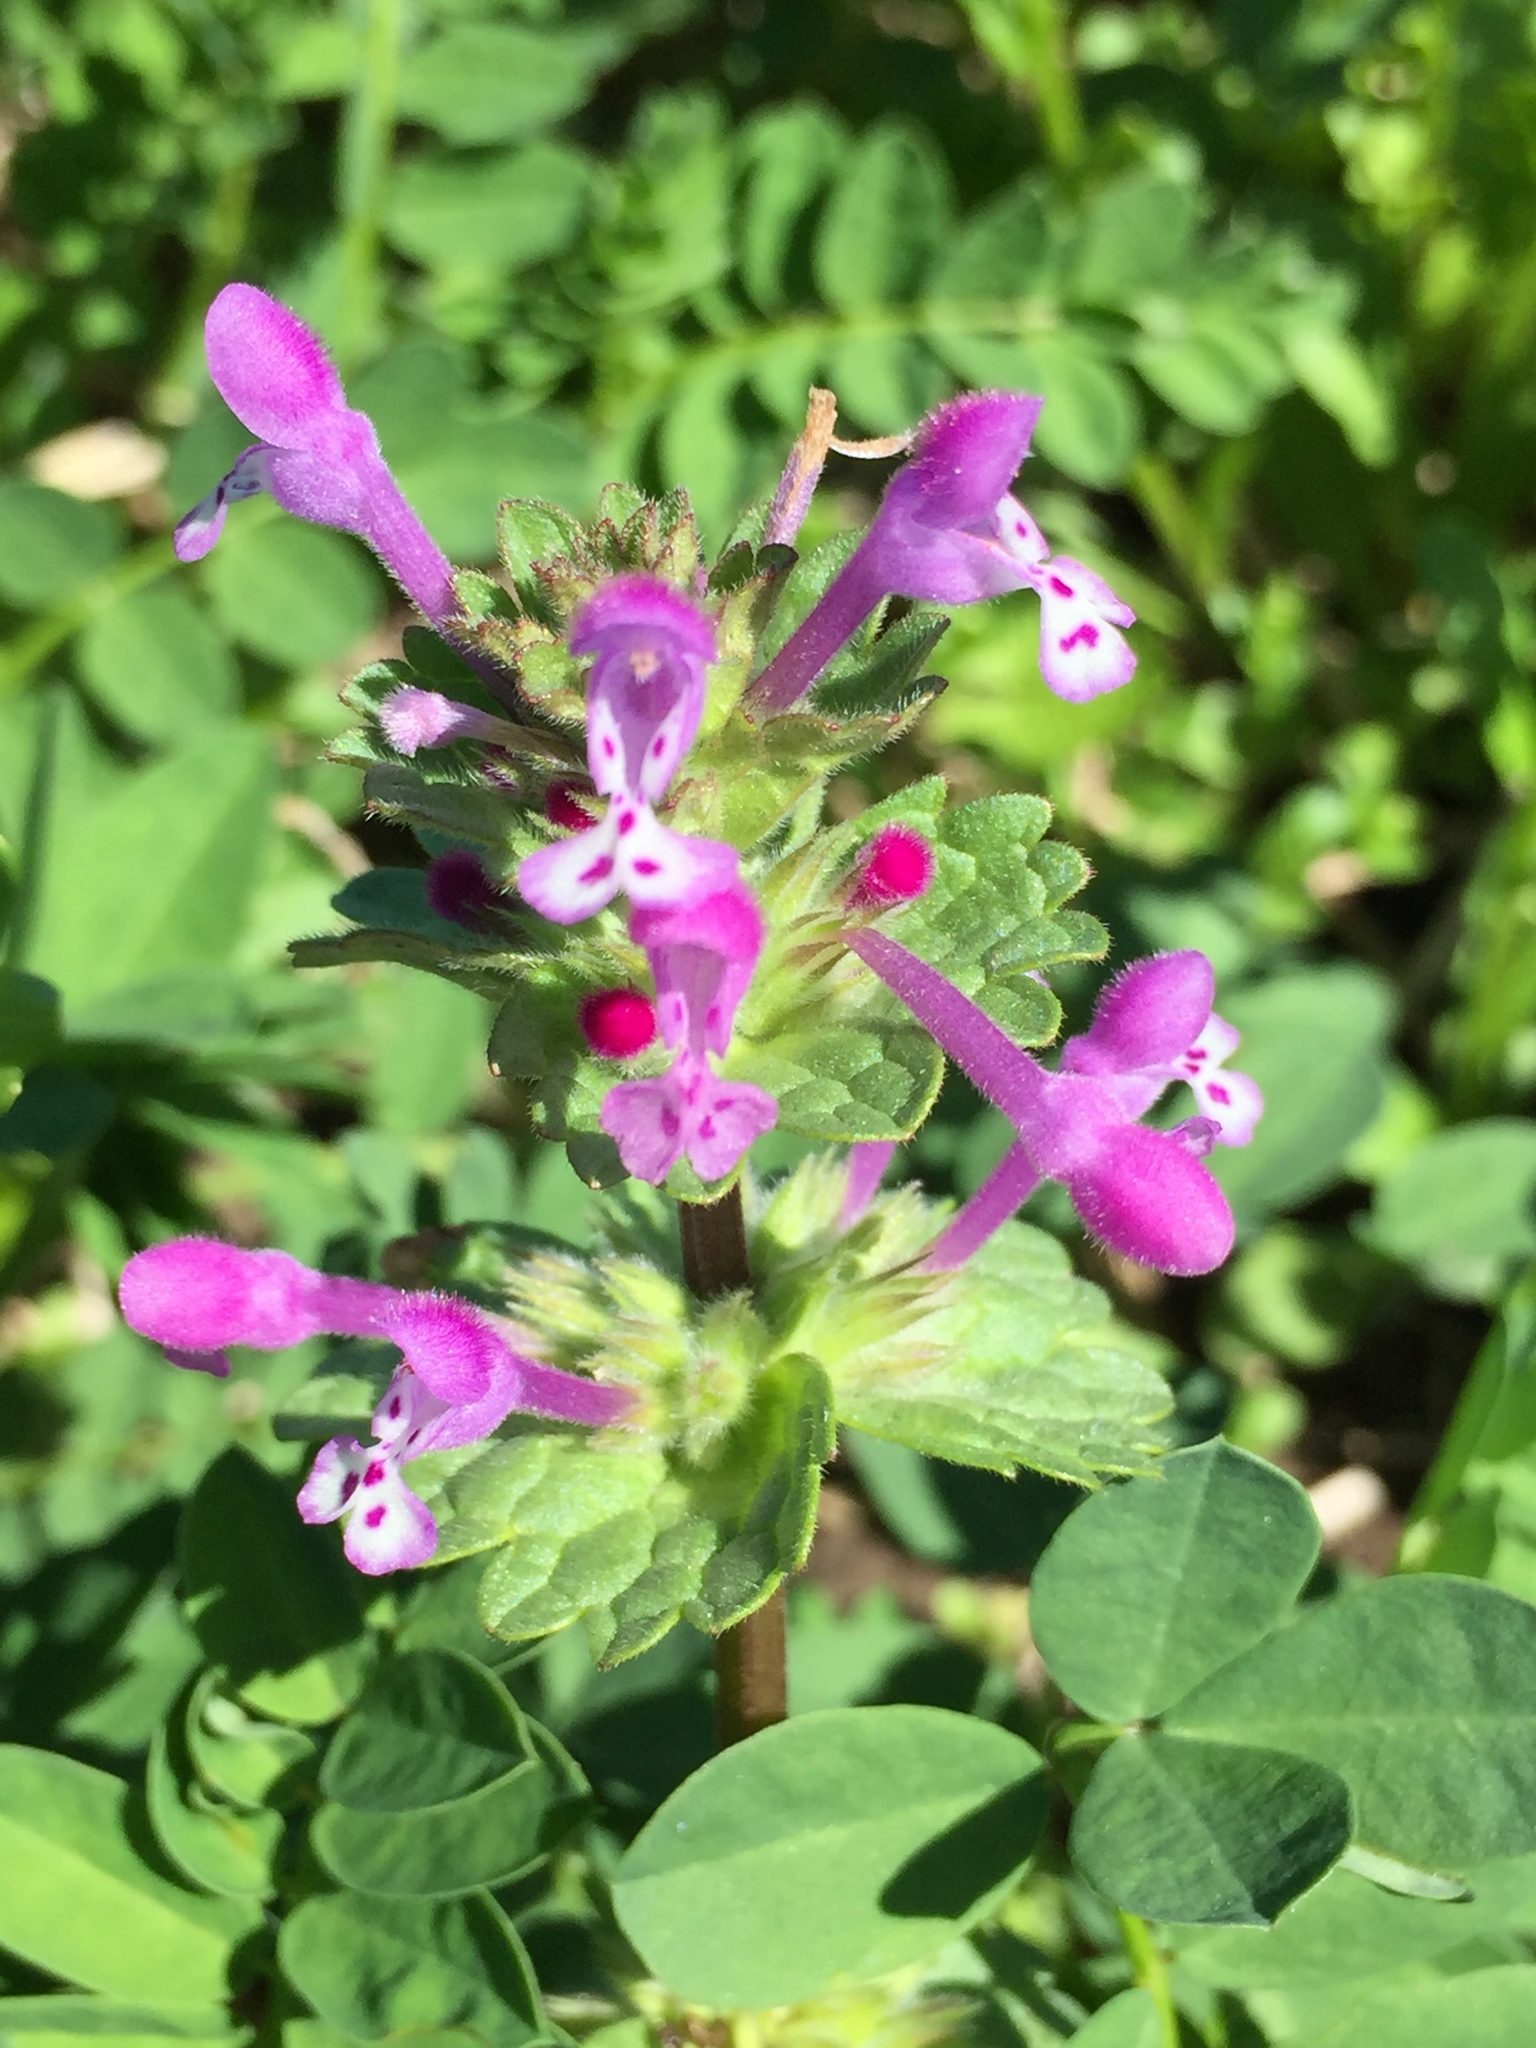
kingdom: Plantae
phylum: Tracheophyta
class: Magnoliopsida
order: Lamiales
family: Lamiaceae
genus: Lamium
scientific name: Lamium amplexicaule
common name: Henbit dead-nettle
